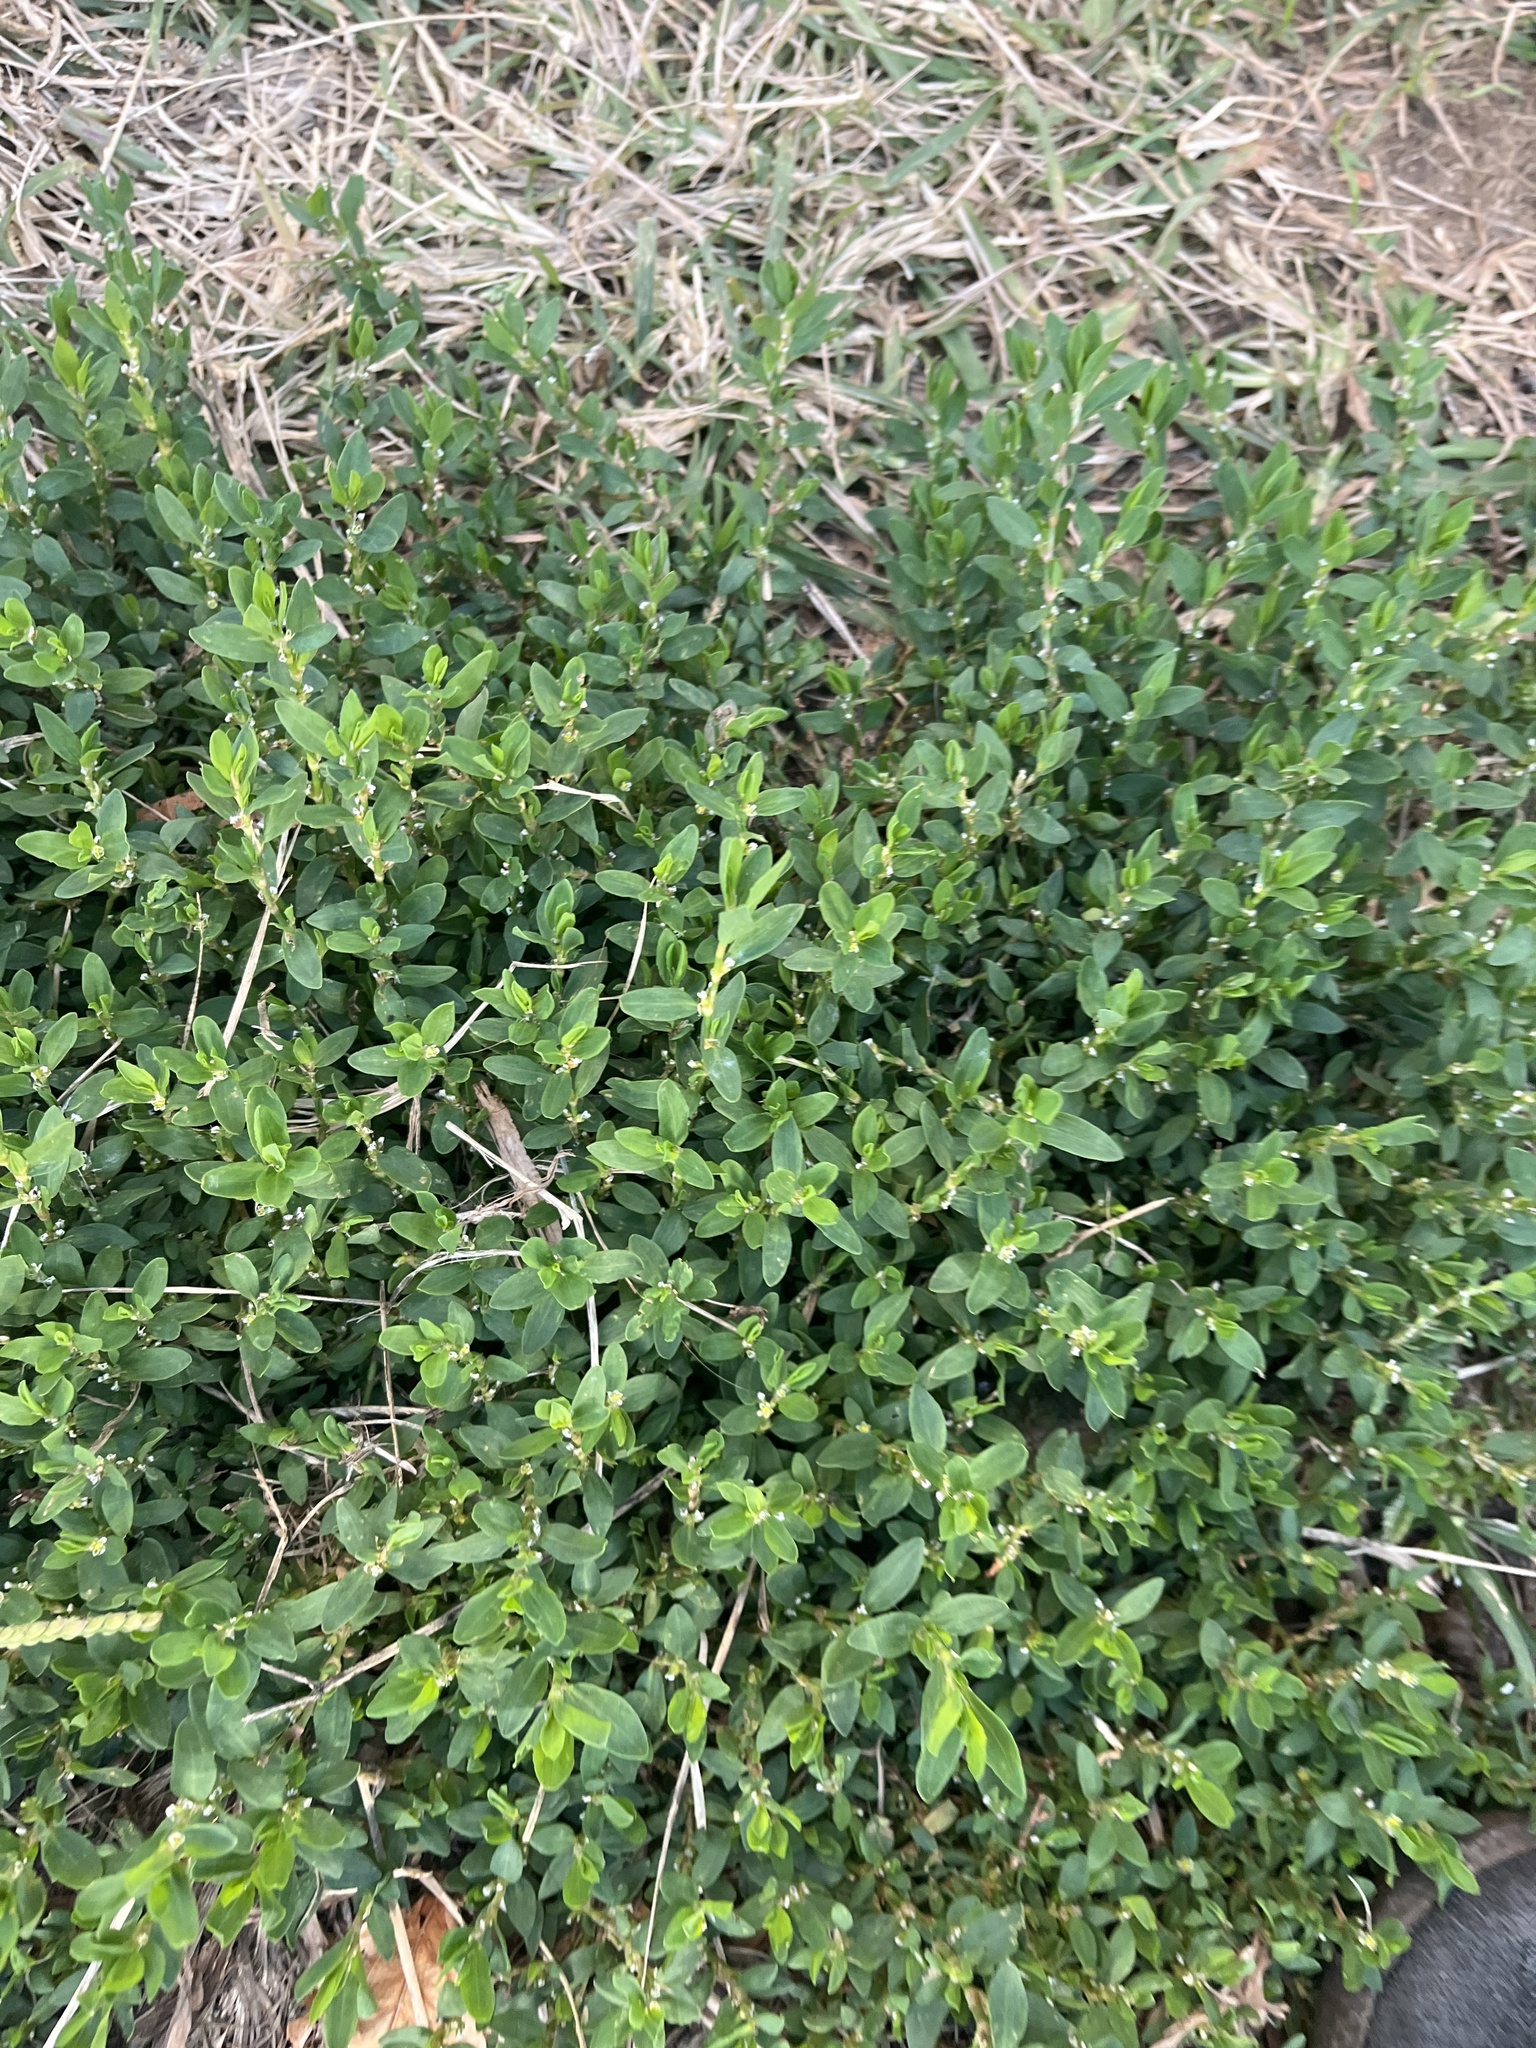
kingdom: Plantae
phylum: Tracheophyta
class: Magnoliopsida
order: Caryophyllales
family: Polygonaceae
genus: Polygonum
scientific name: Polygonum aviculare
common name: Prostrate knotweed
